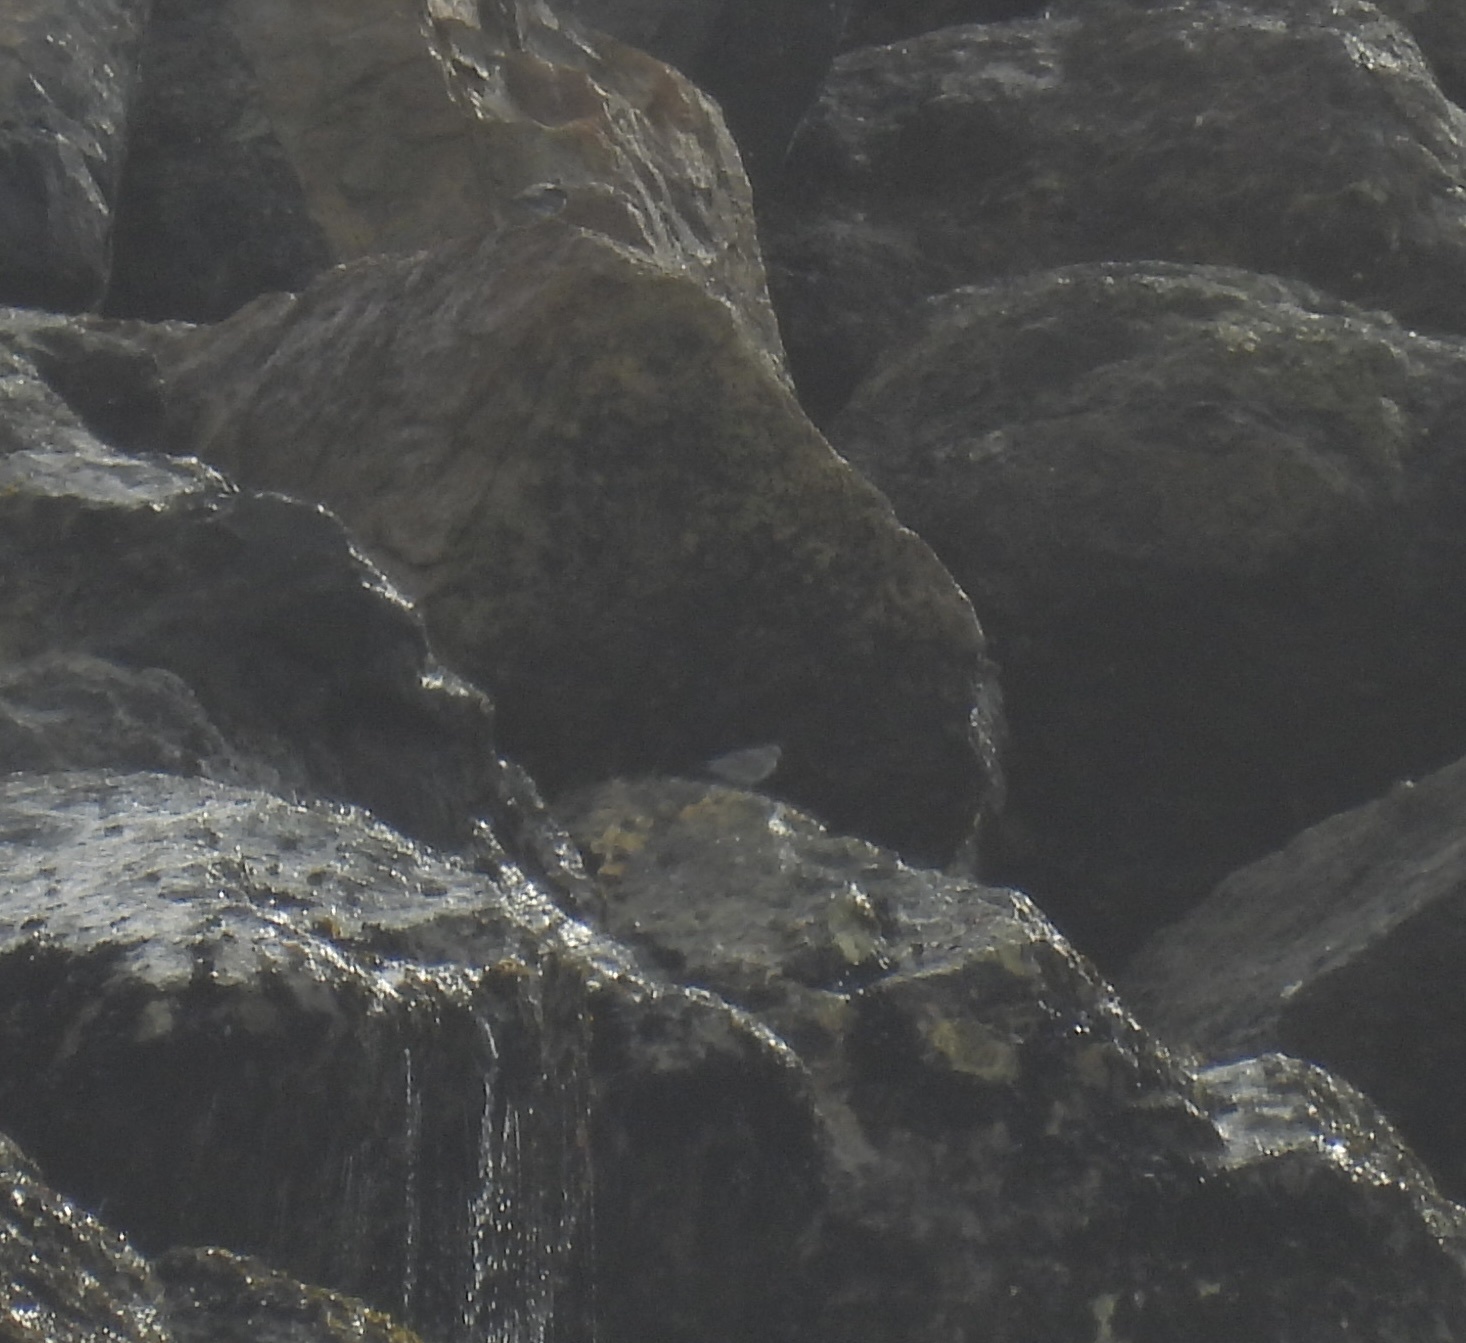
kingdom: Animalia
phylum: Chordata
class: Aves
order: Charadriiformes
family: Scolopacidae
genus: Calidris
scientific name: Calidris virgata
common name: Surfbird
